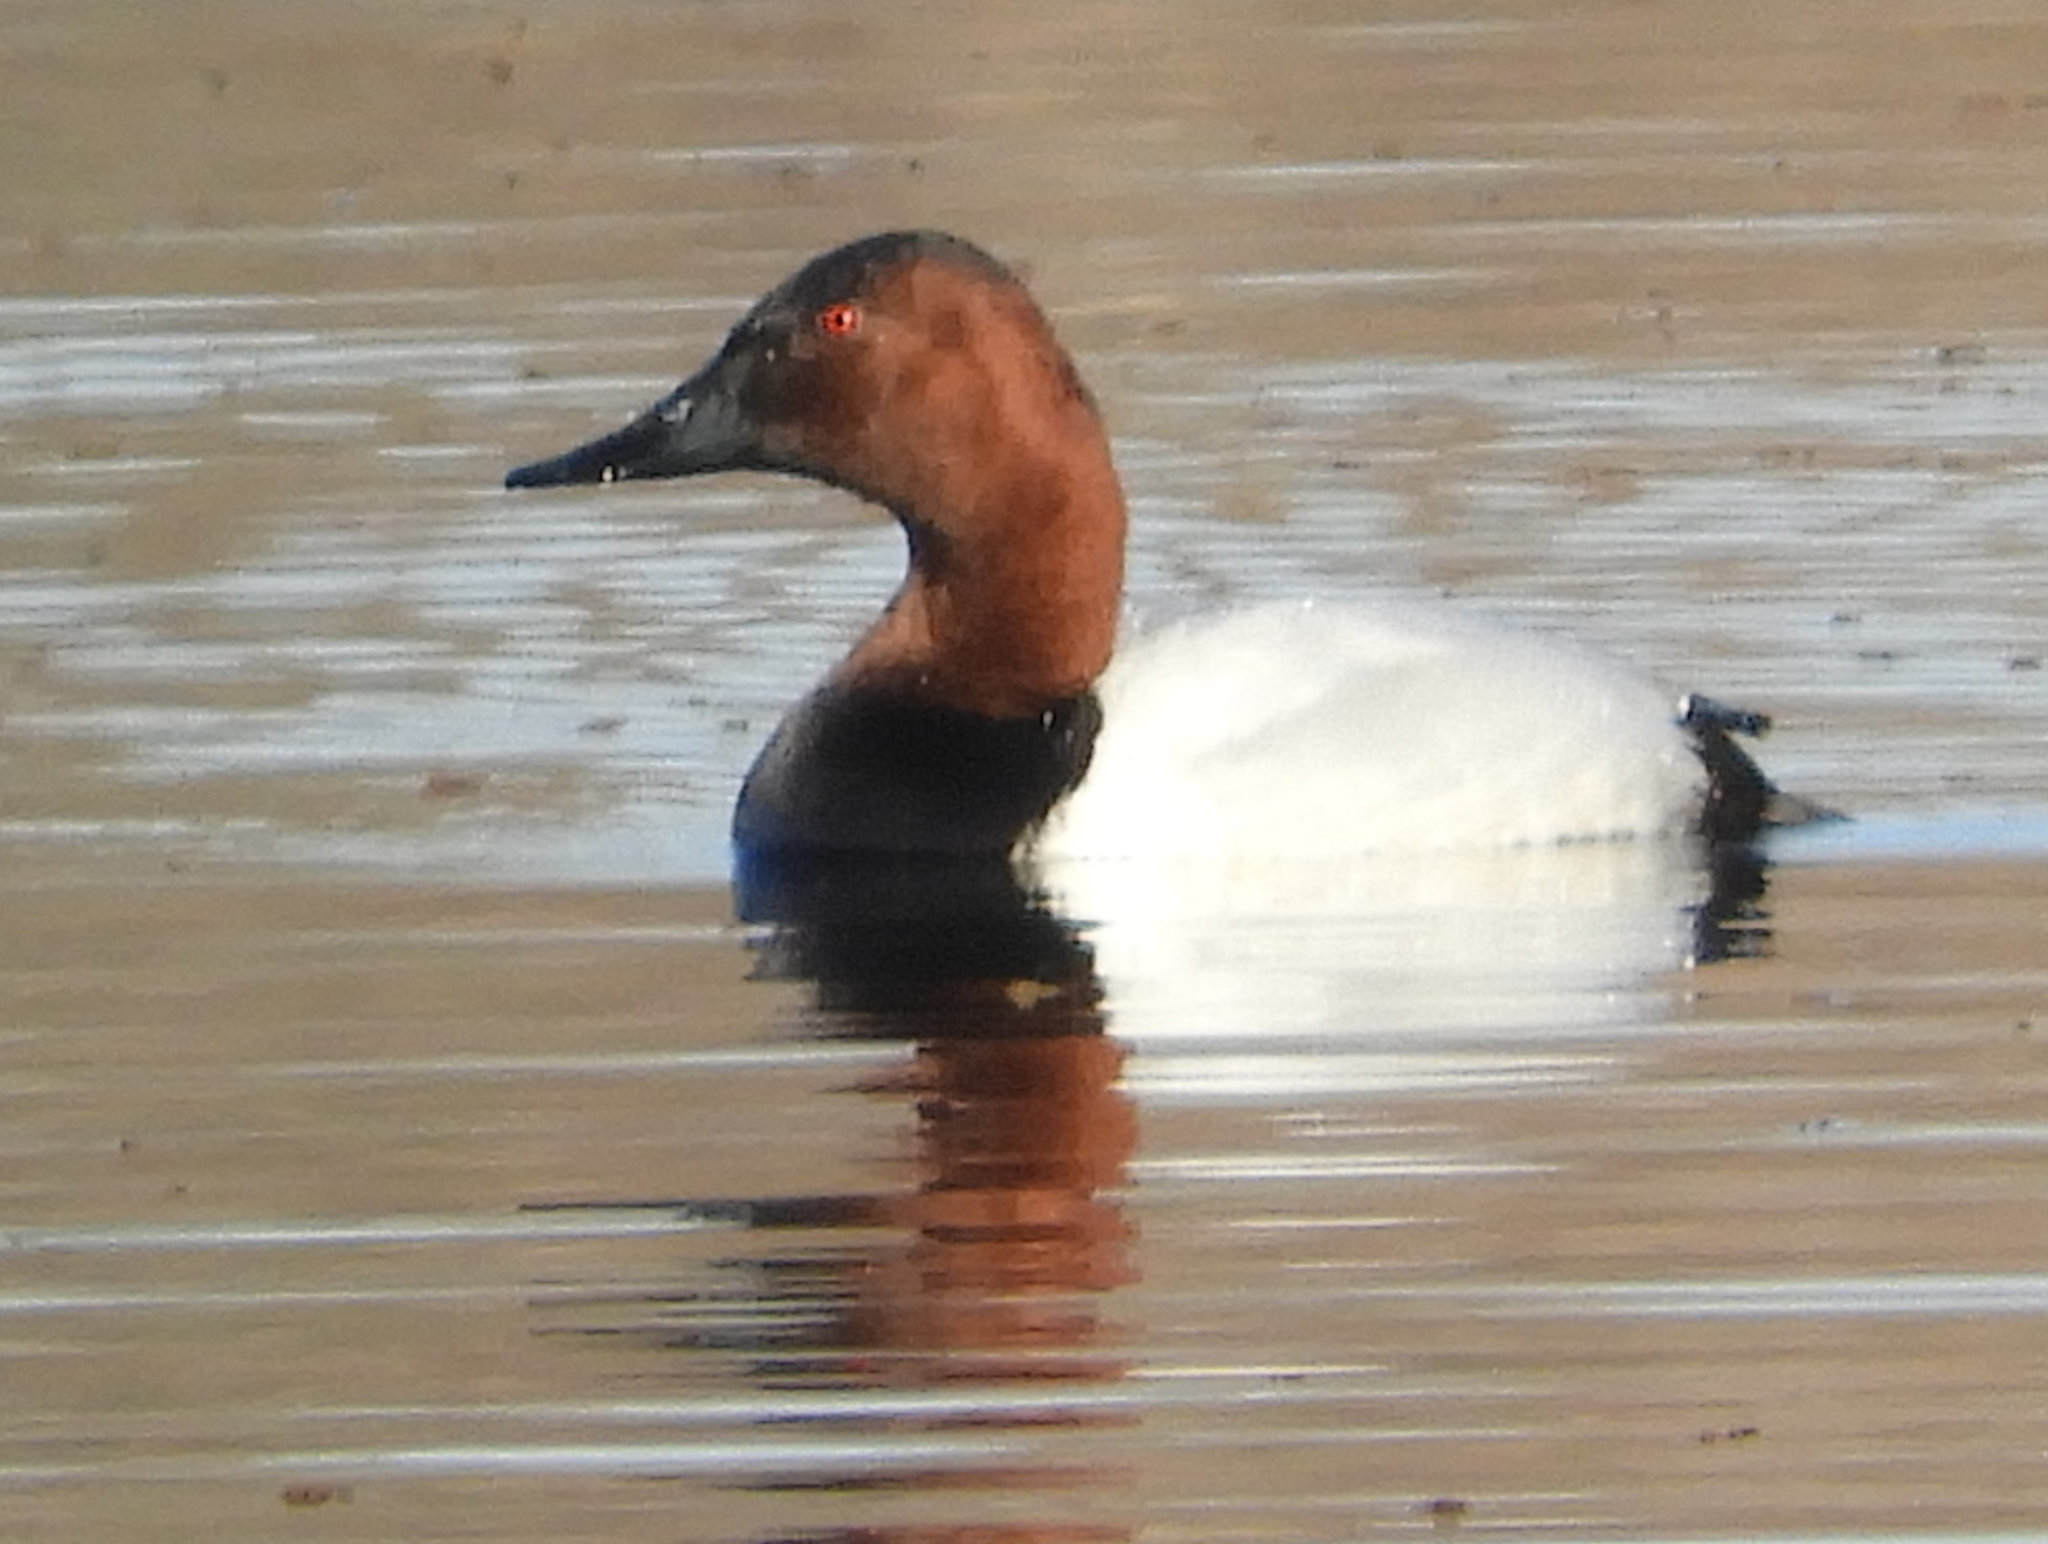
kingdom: Animalia
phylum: Chordata
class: Aves
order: Anseriformes
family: Anatidae
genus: Aythya
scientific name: Aythya valisineria
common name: Canvasback
